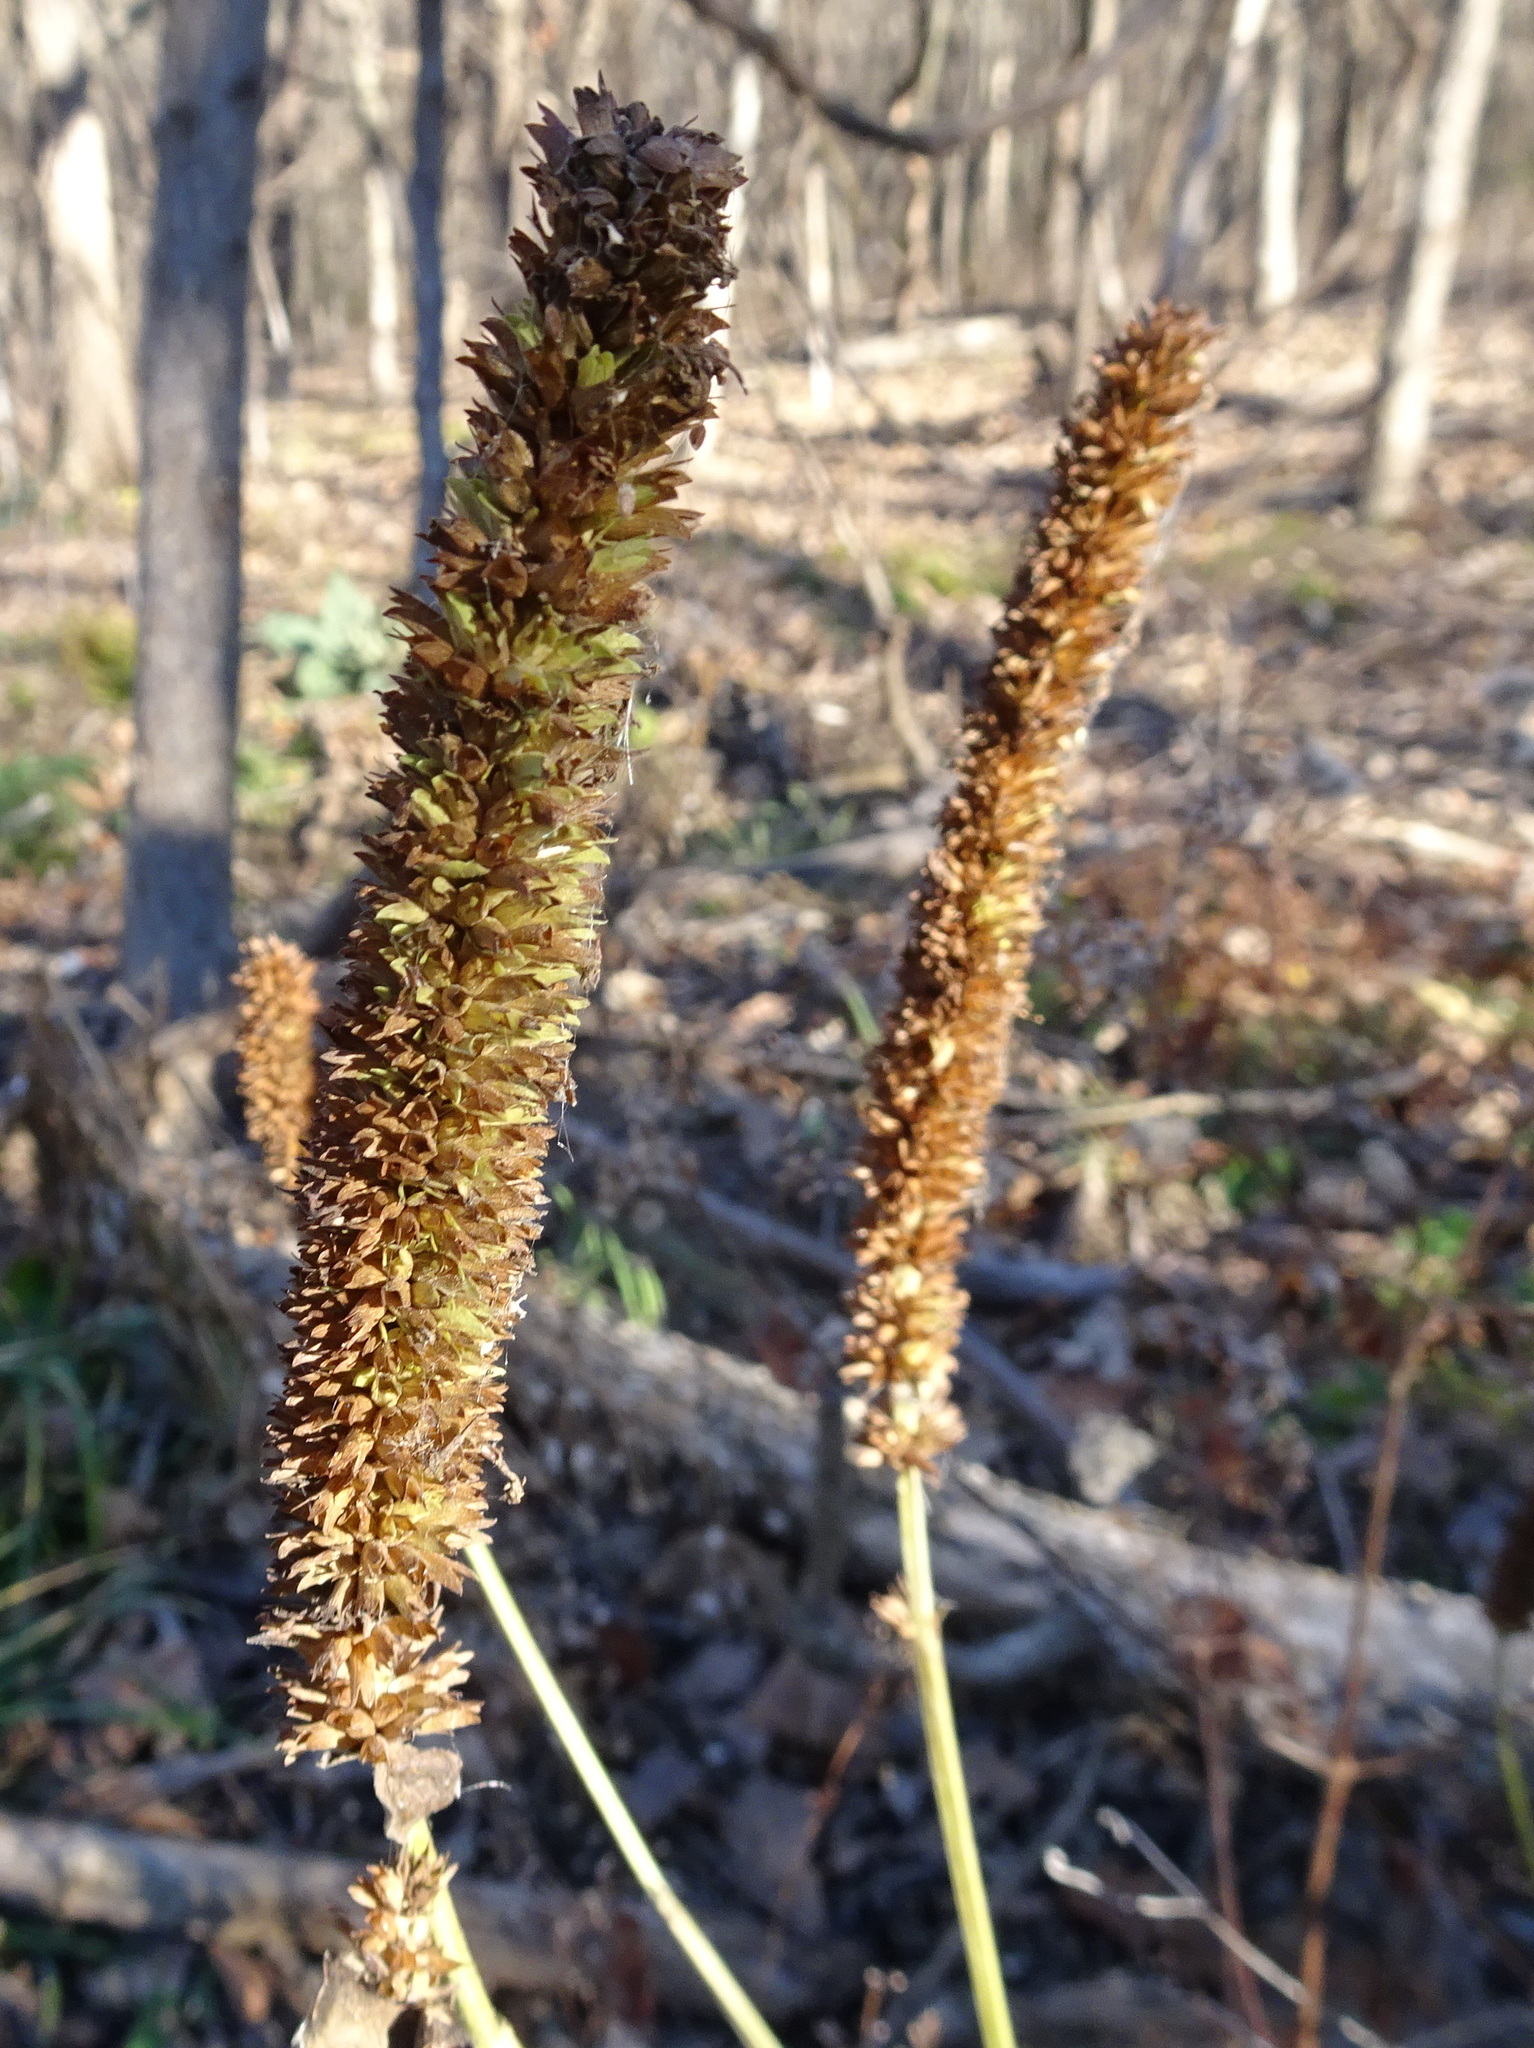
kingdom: Plantae
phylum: Tracheophyta
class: Magnoliopsida
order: Lamiales
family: Lamiaceae
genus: Agastache
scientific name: Agastache nepetoides
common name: Catnip giant hyssop
